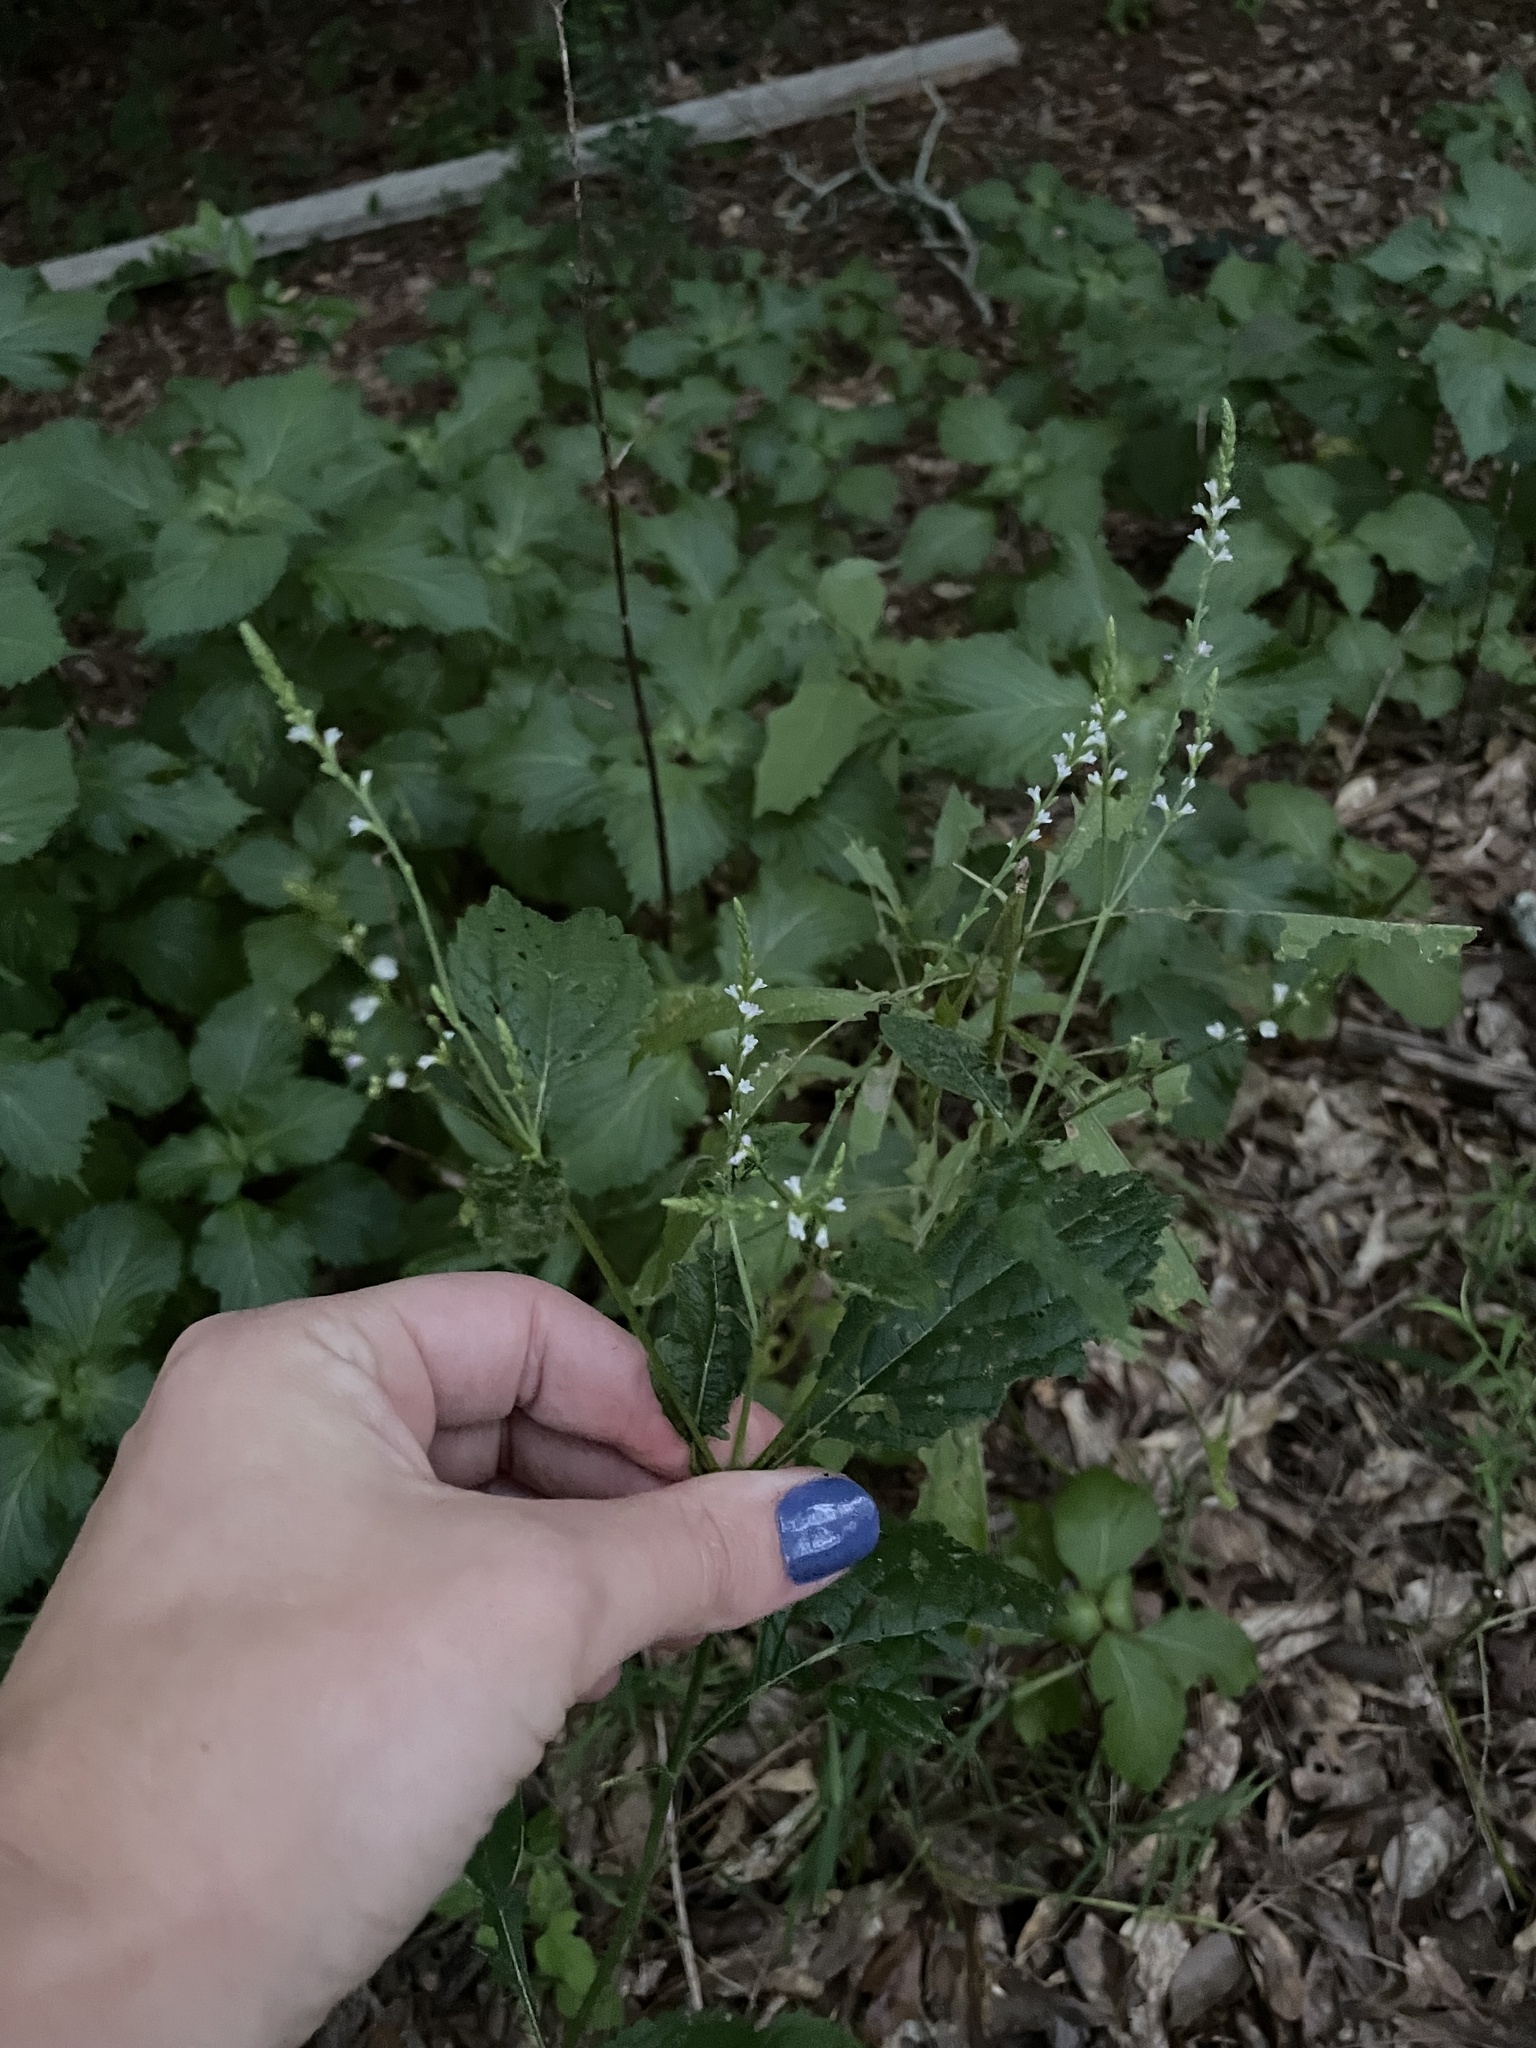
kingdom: Plantae
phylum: Tracheophyta
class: Magnoliopsida
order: Lamiales
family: Verbenaceae
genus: Verbena
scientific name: Verbena urticifolia
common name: Nettle-leaved vervain
